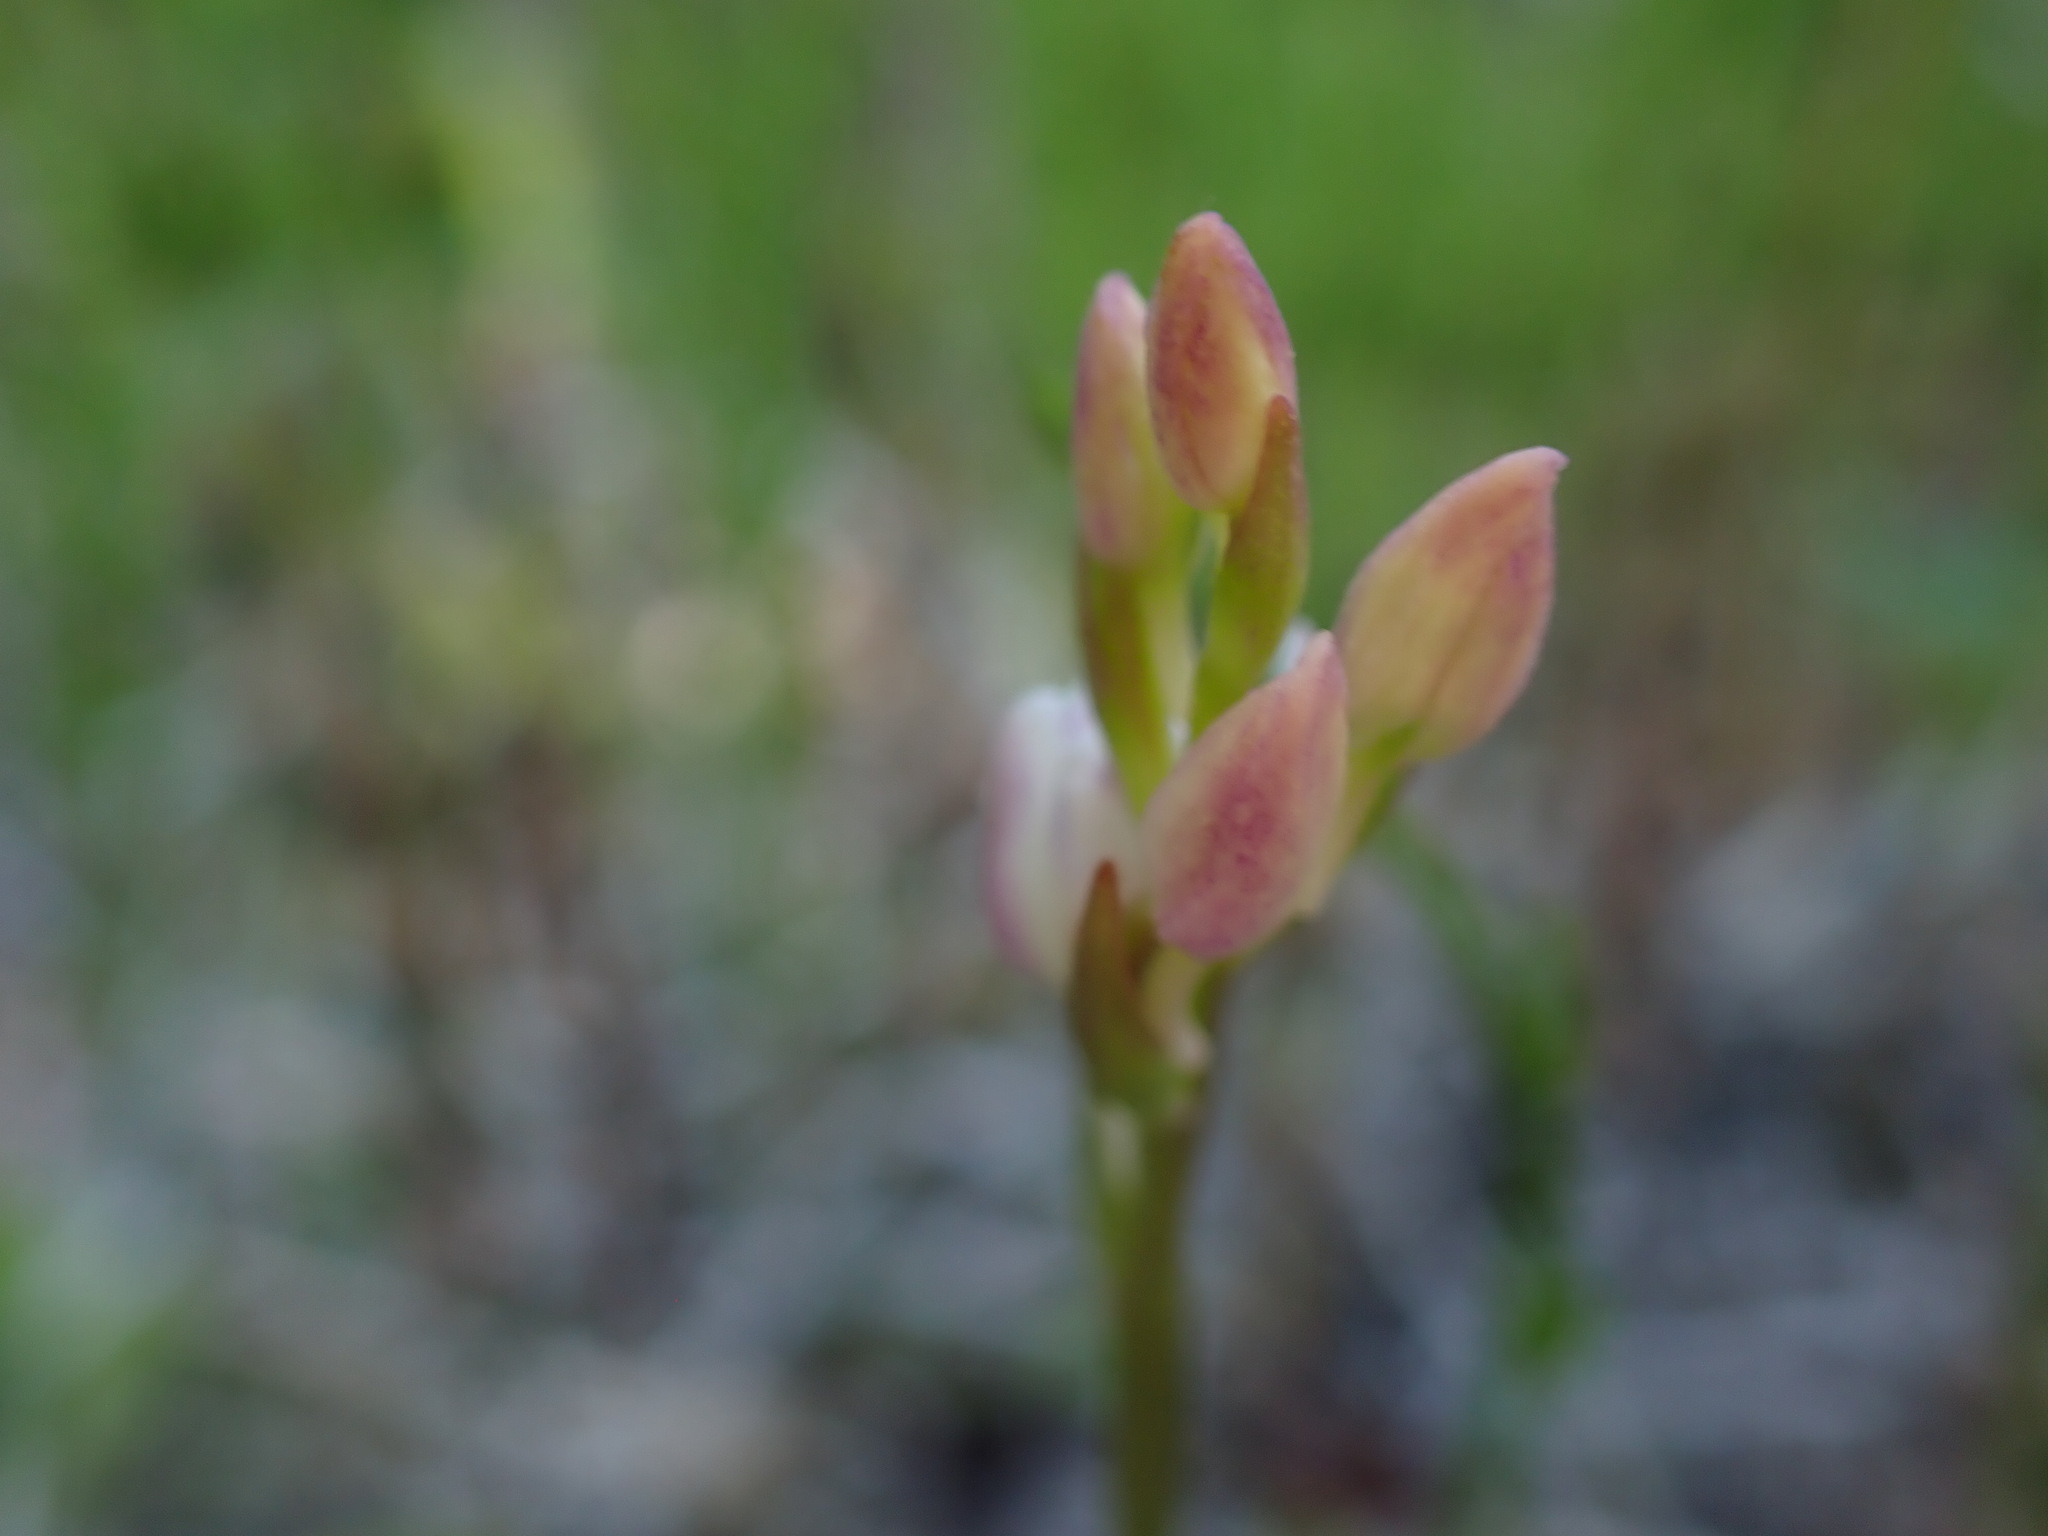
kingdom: Plantae
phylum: Tracheophyta
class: Liliopsida
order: Asparagales
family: Orchidaceae
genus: Galearis
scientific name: Galearis rotundifolia
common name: One-leaved orchis
